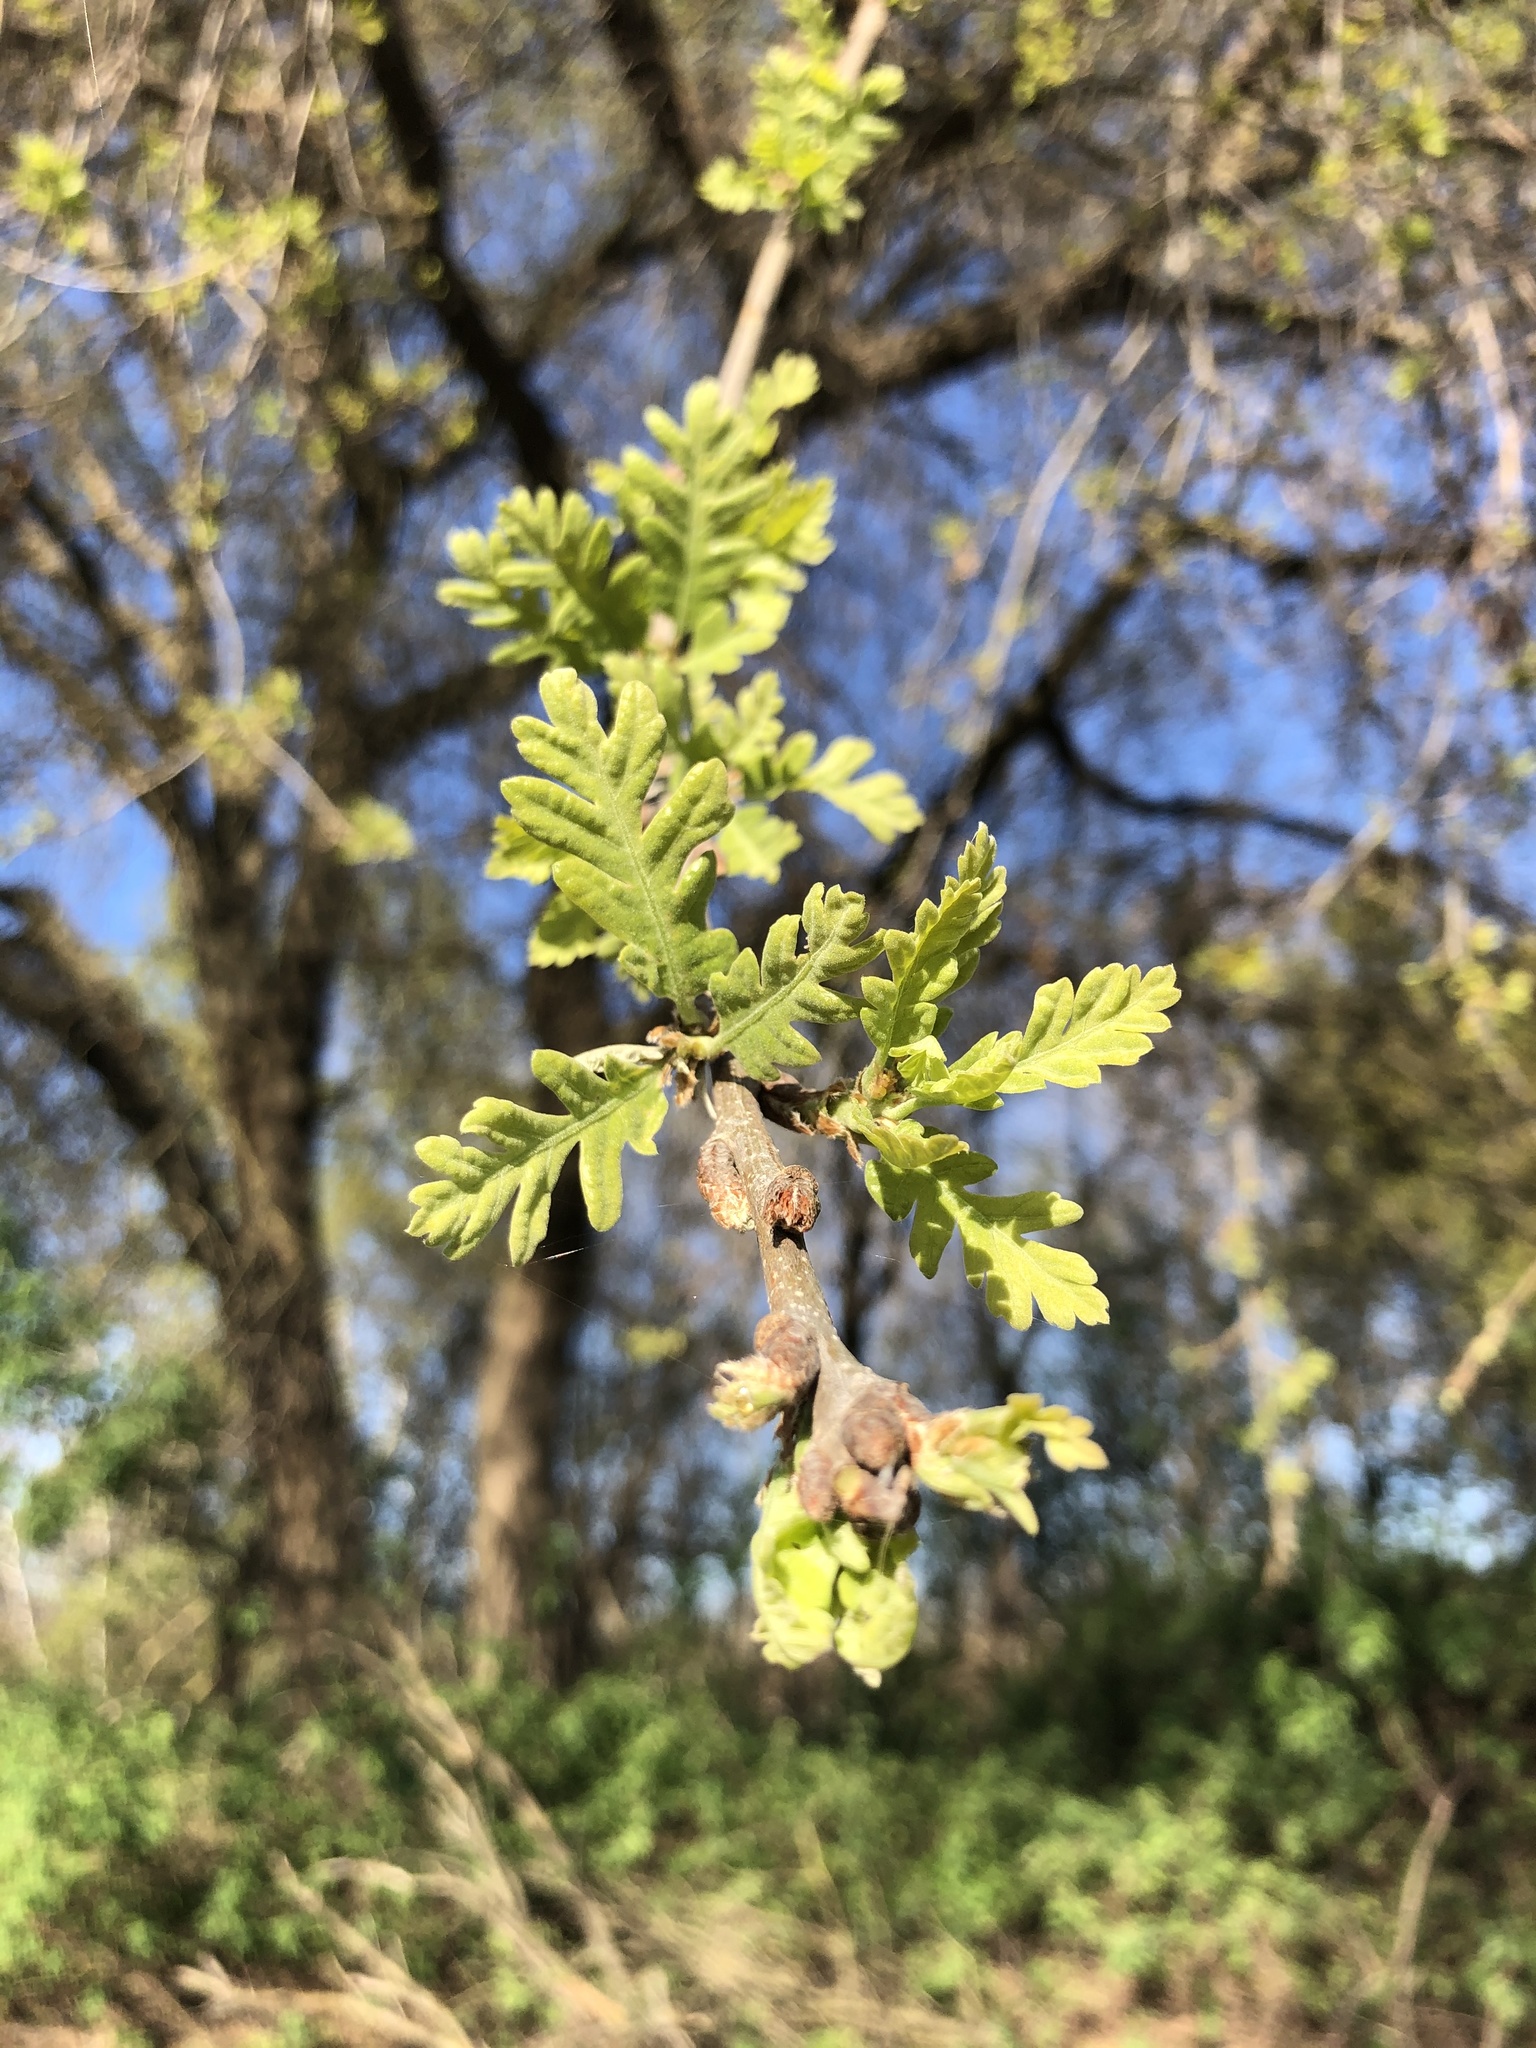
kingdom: Plantae
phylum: Tracheophyta
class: Magnoliopsida
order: Fagales
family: Fagaceae
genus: Quercus
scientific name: Quercus lobata
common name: Valley oak
